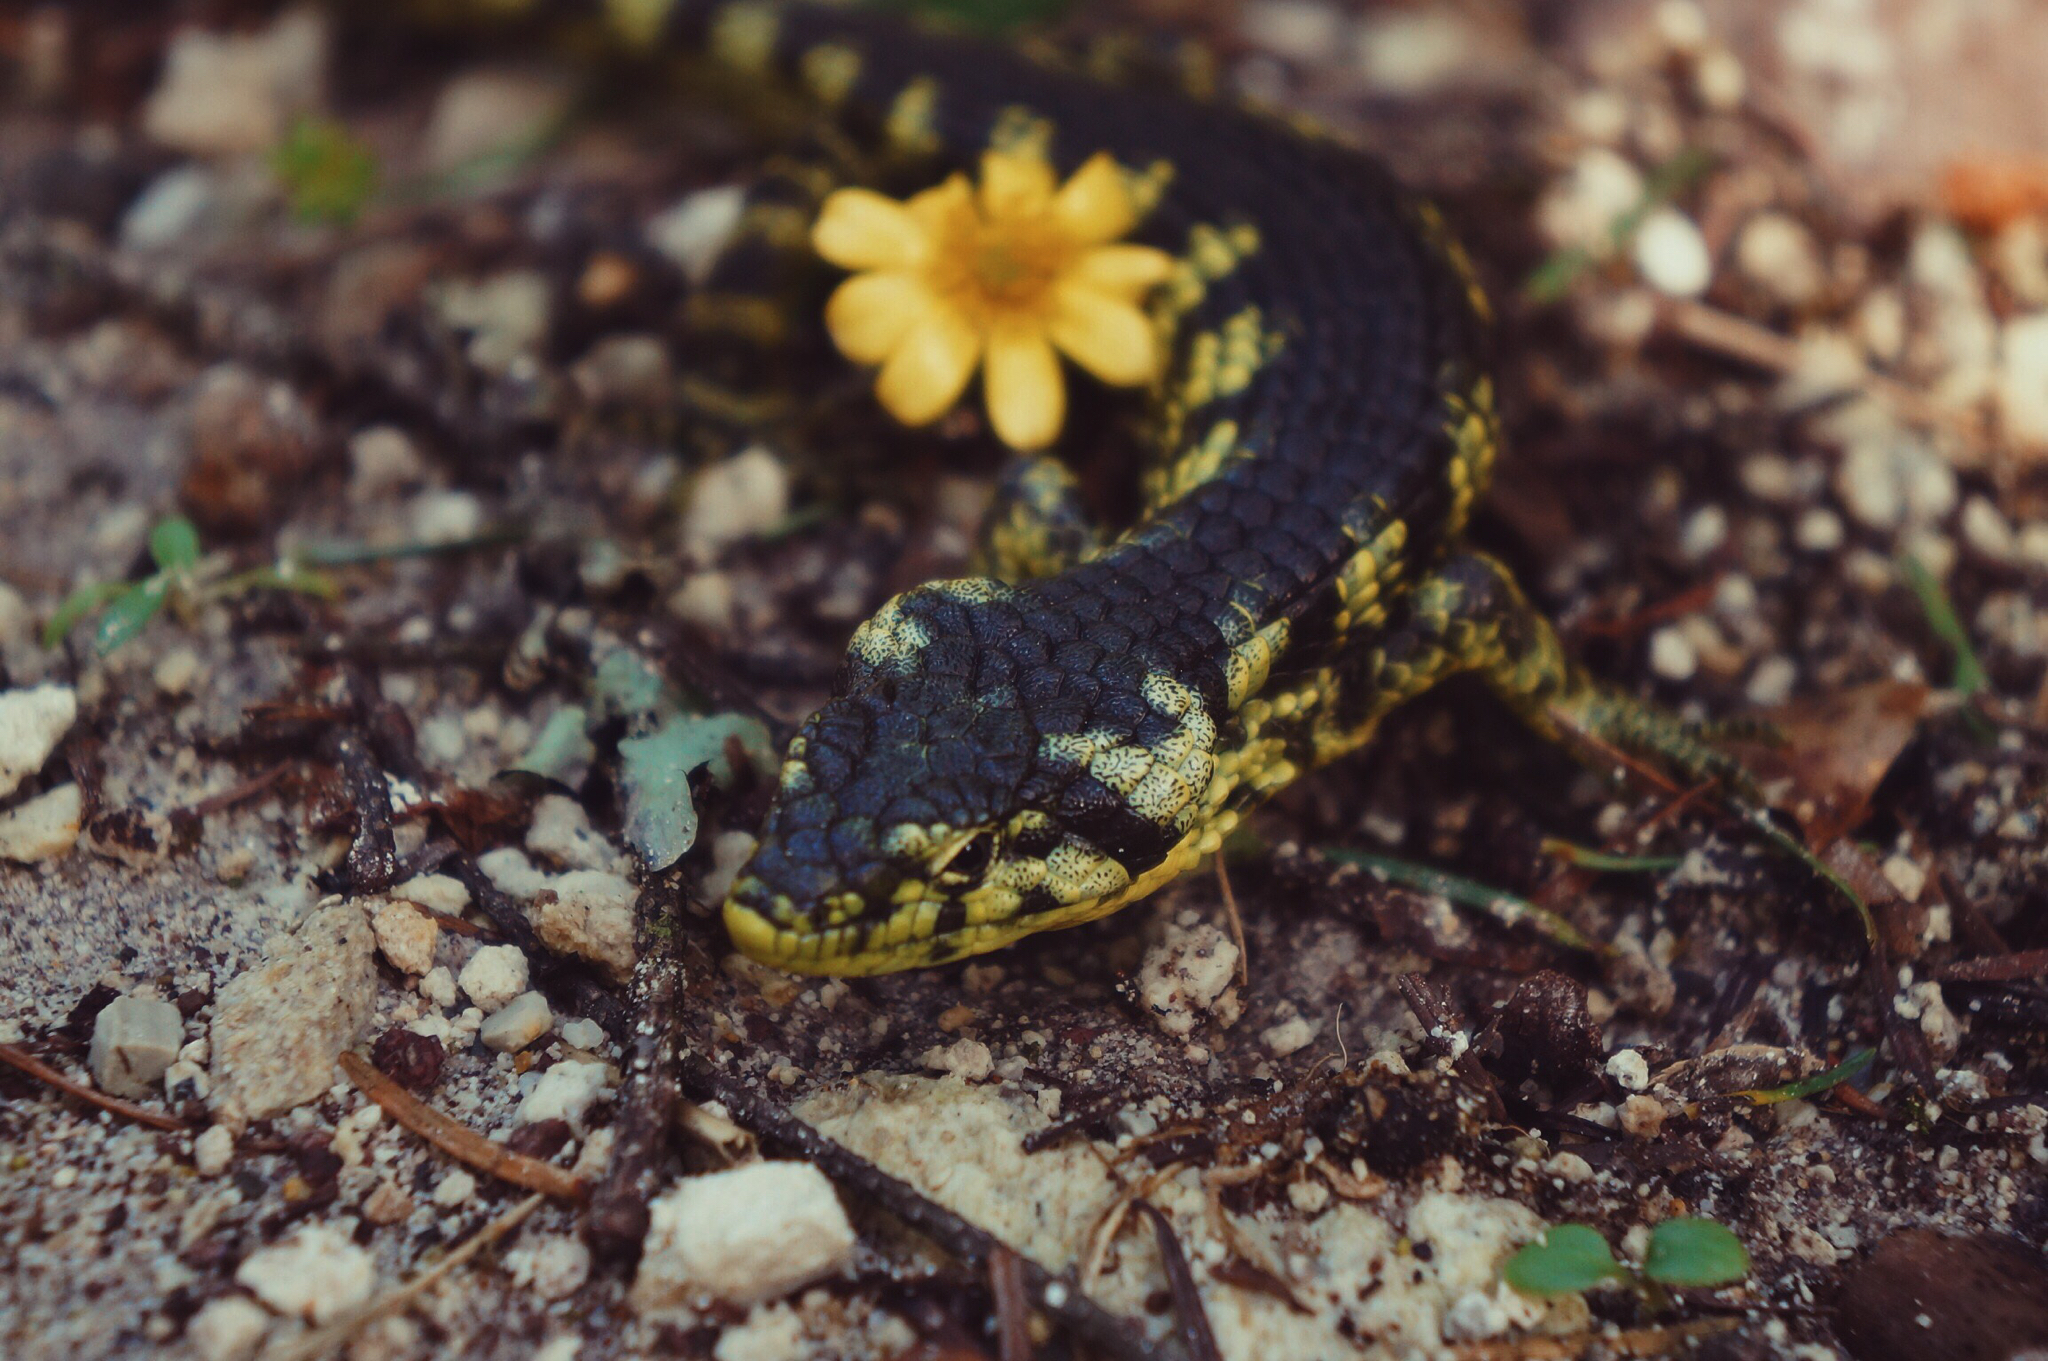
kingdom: Animalia
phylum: Chordata
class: Squamata
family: Anguidae
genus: Abronia
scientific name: Abronia taeniata
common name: Bromeliad arboreal alligator lizard
